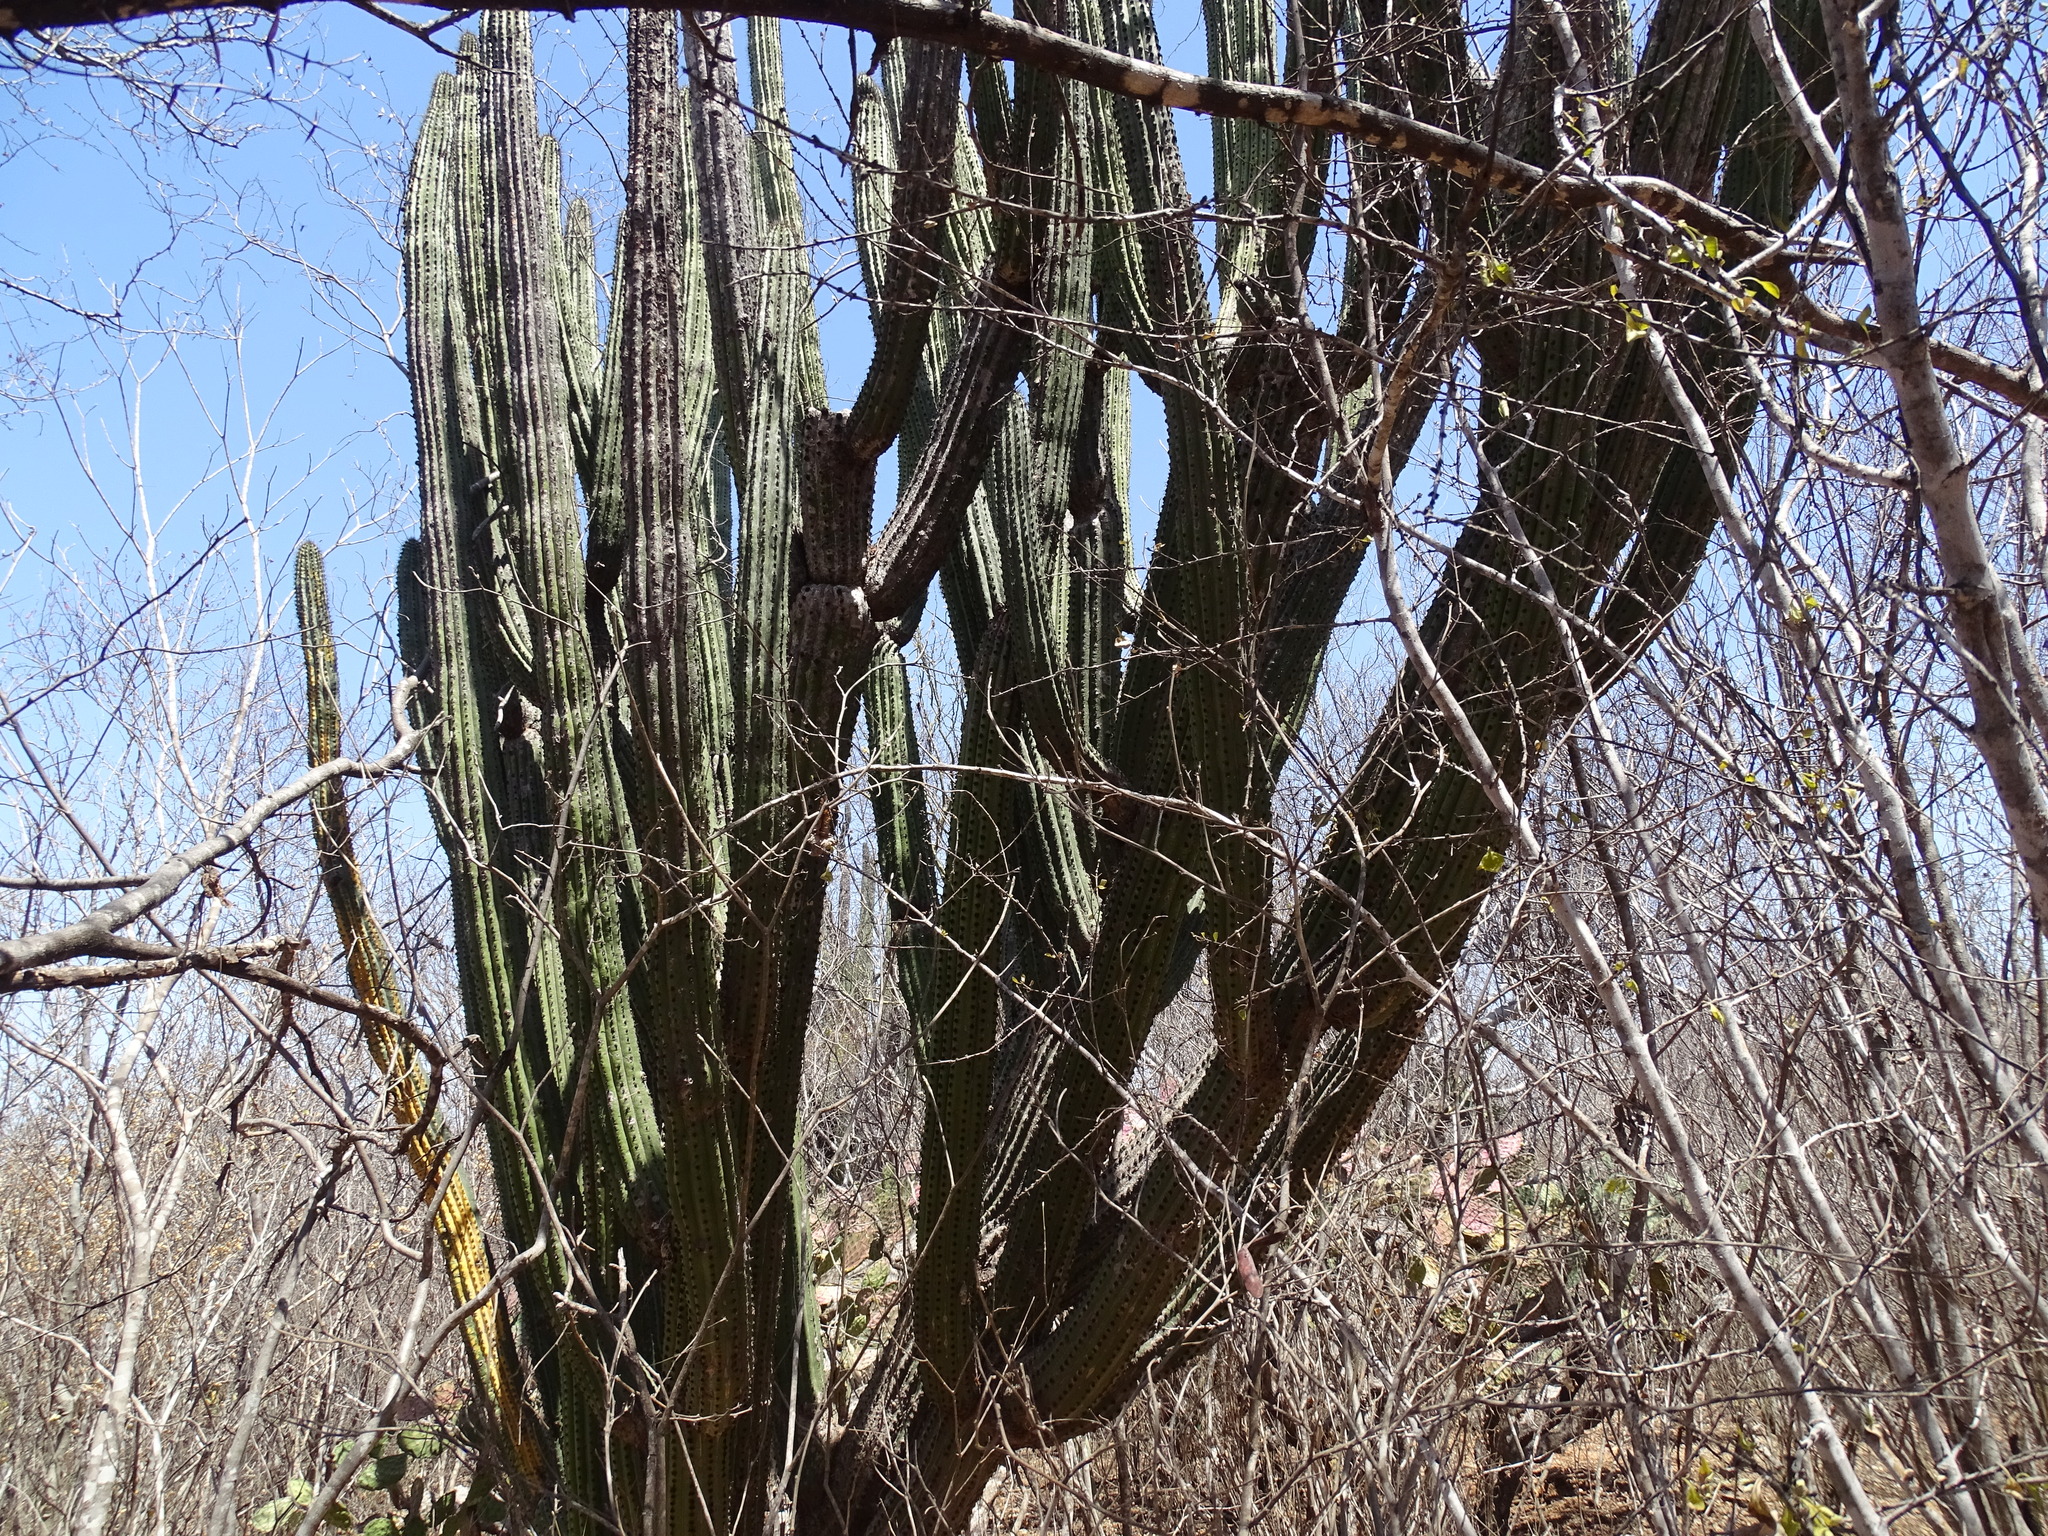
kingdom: Plantae
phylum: Tracheophyta
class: Magnoliopsida
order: Caryophyllales
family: Cactaceae
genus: Pachycereus
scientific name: Pachycereus pecten-aboriginum
